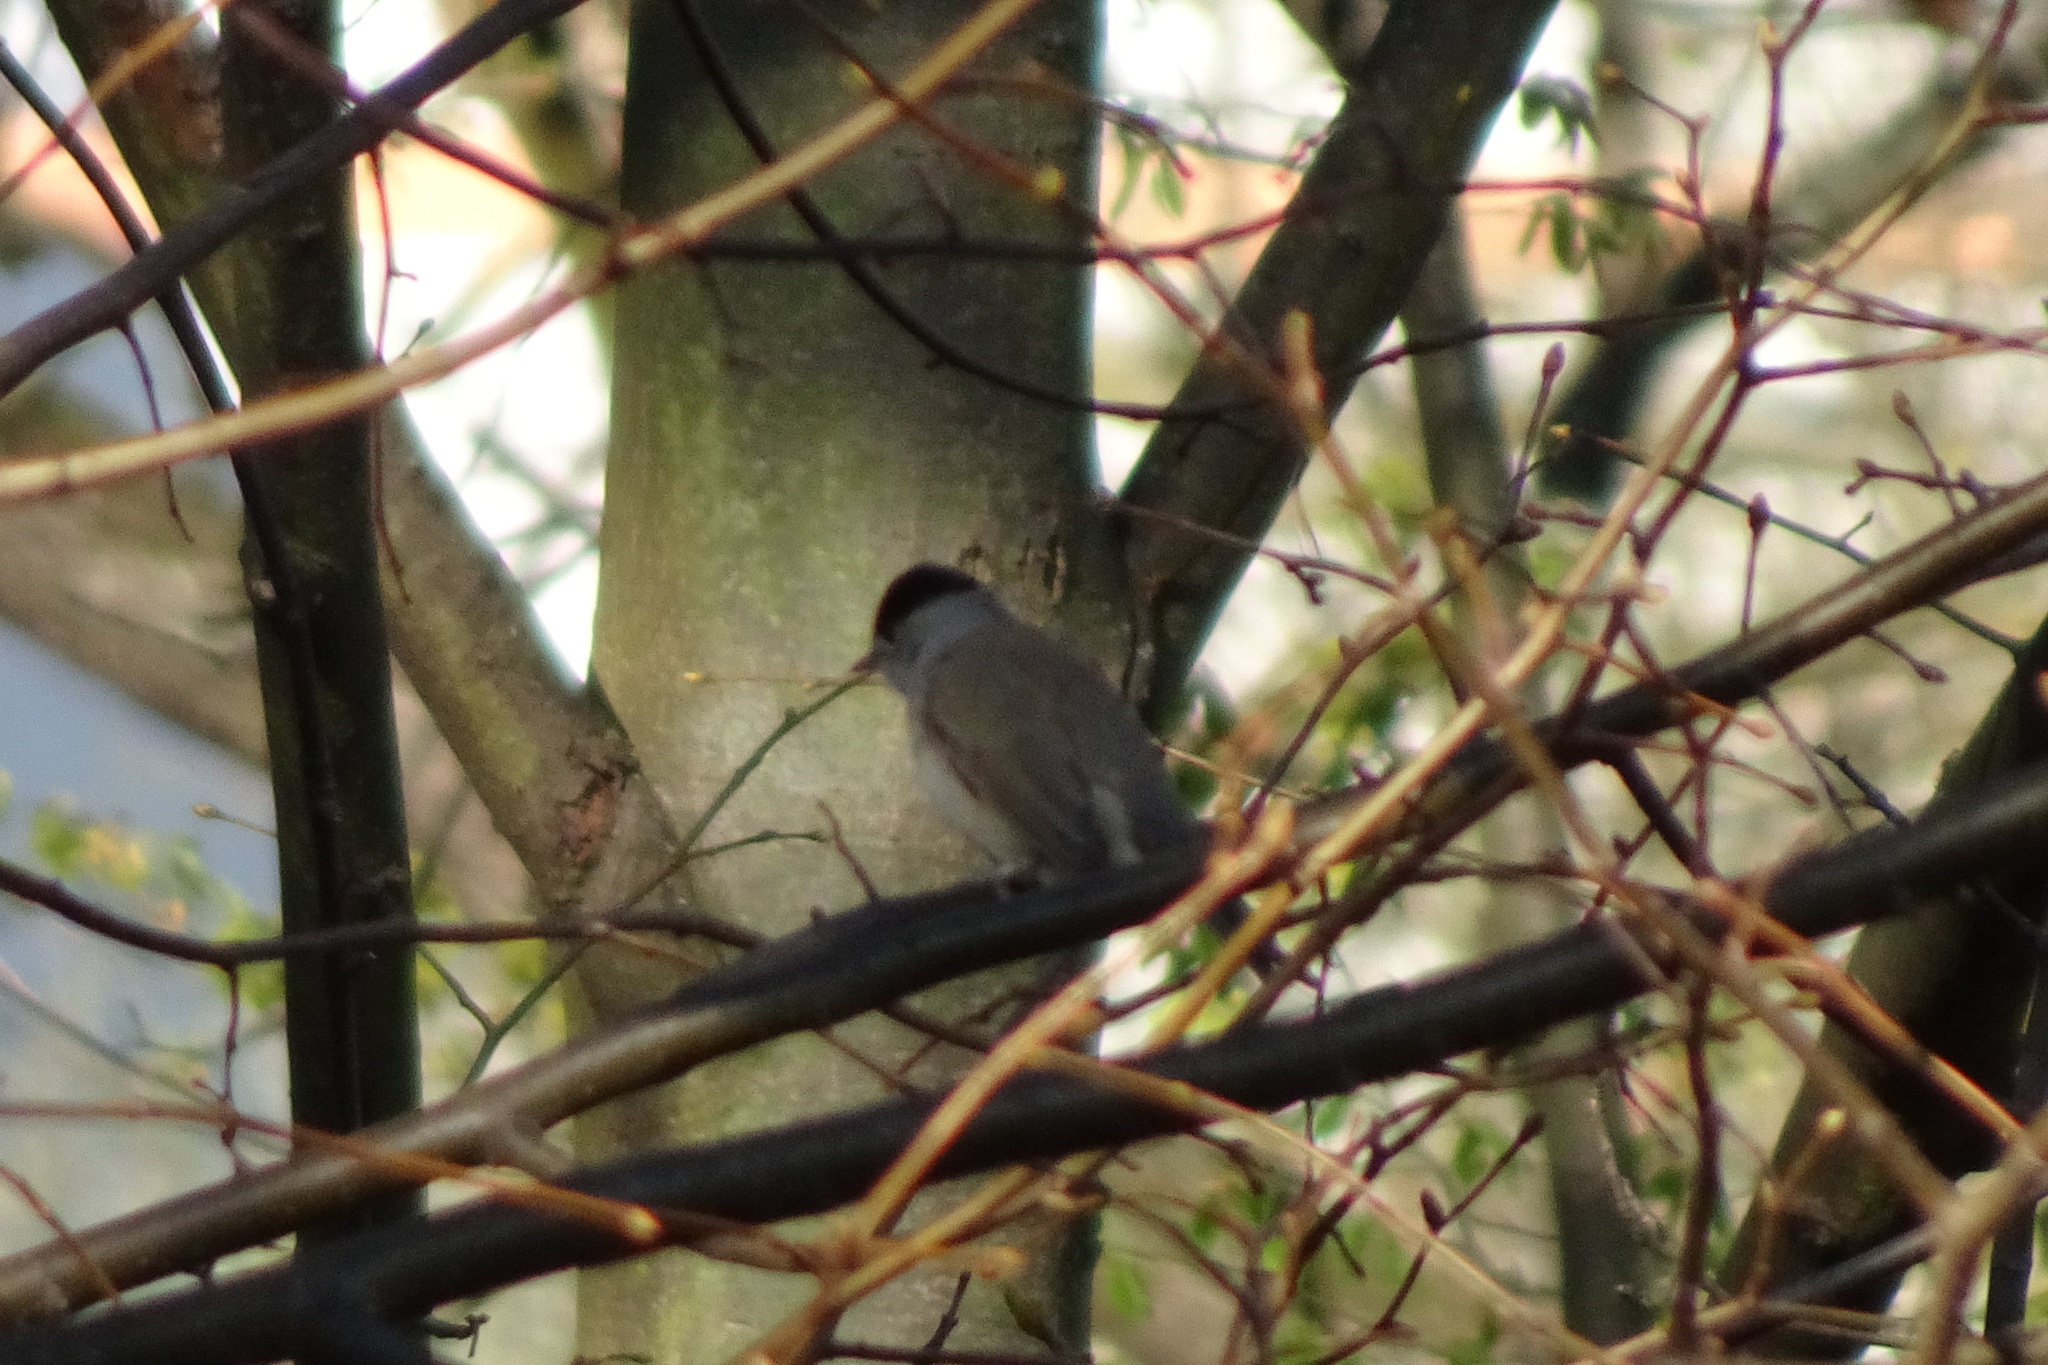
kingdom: Animalia
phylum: Chordata
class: Aves
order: Passeriformes
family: Sylviidae
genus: Sylvia
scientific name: Sylvia atricapilla
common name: Eurasian blackcap
